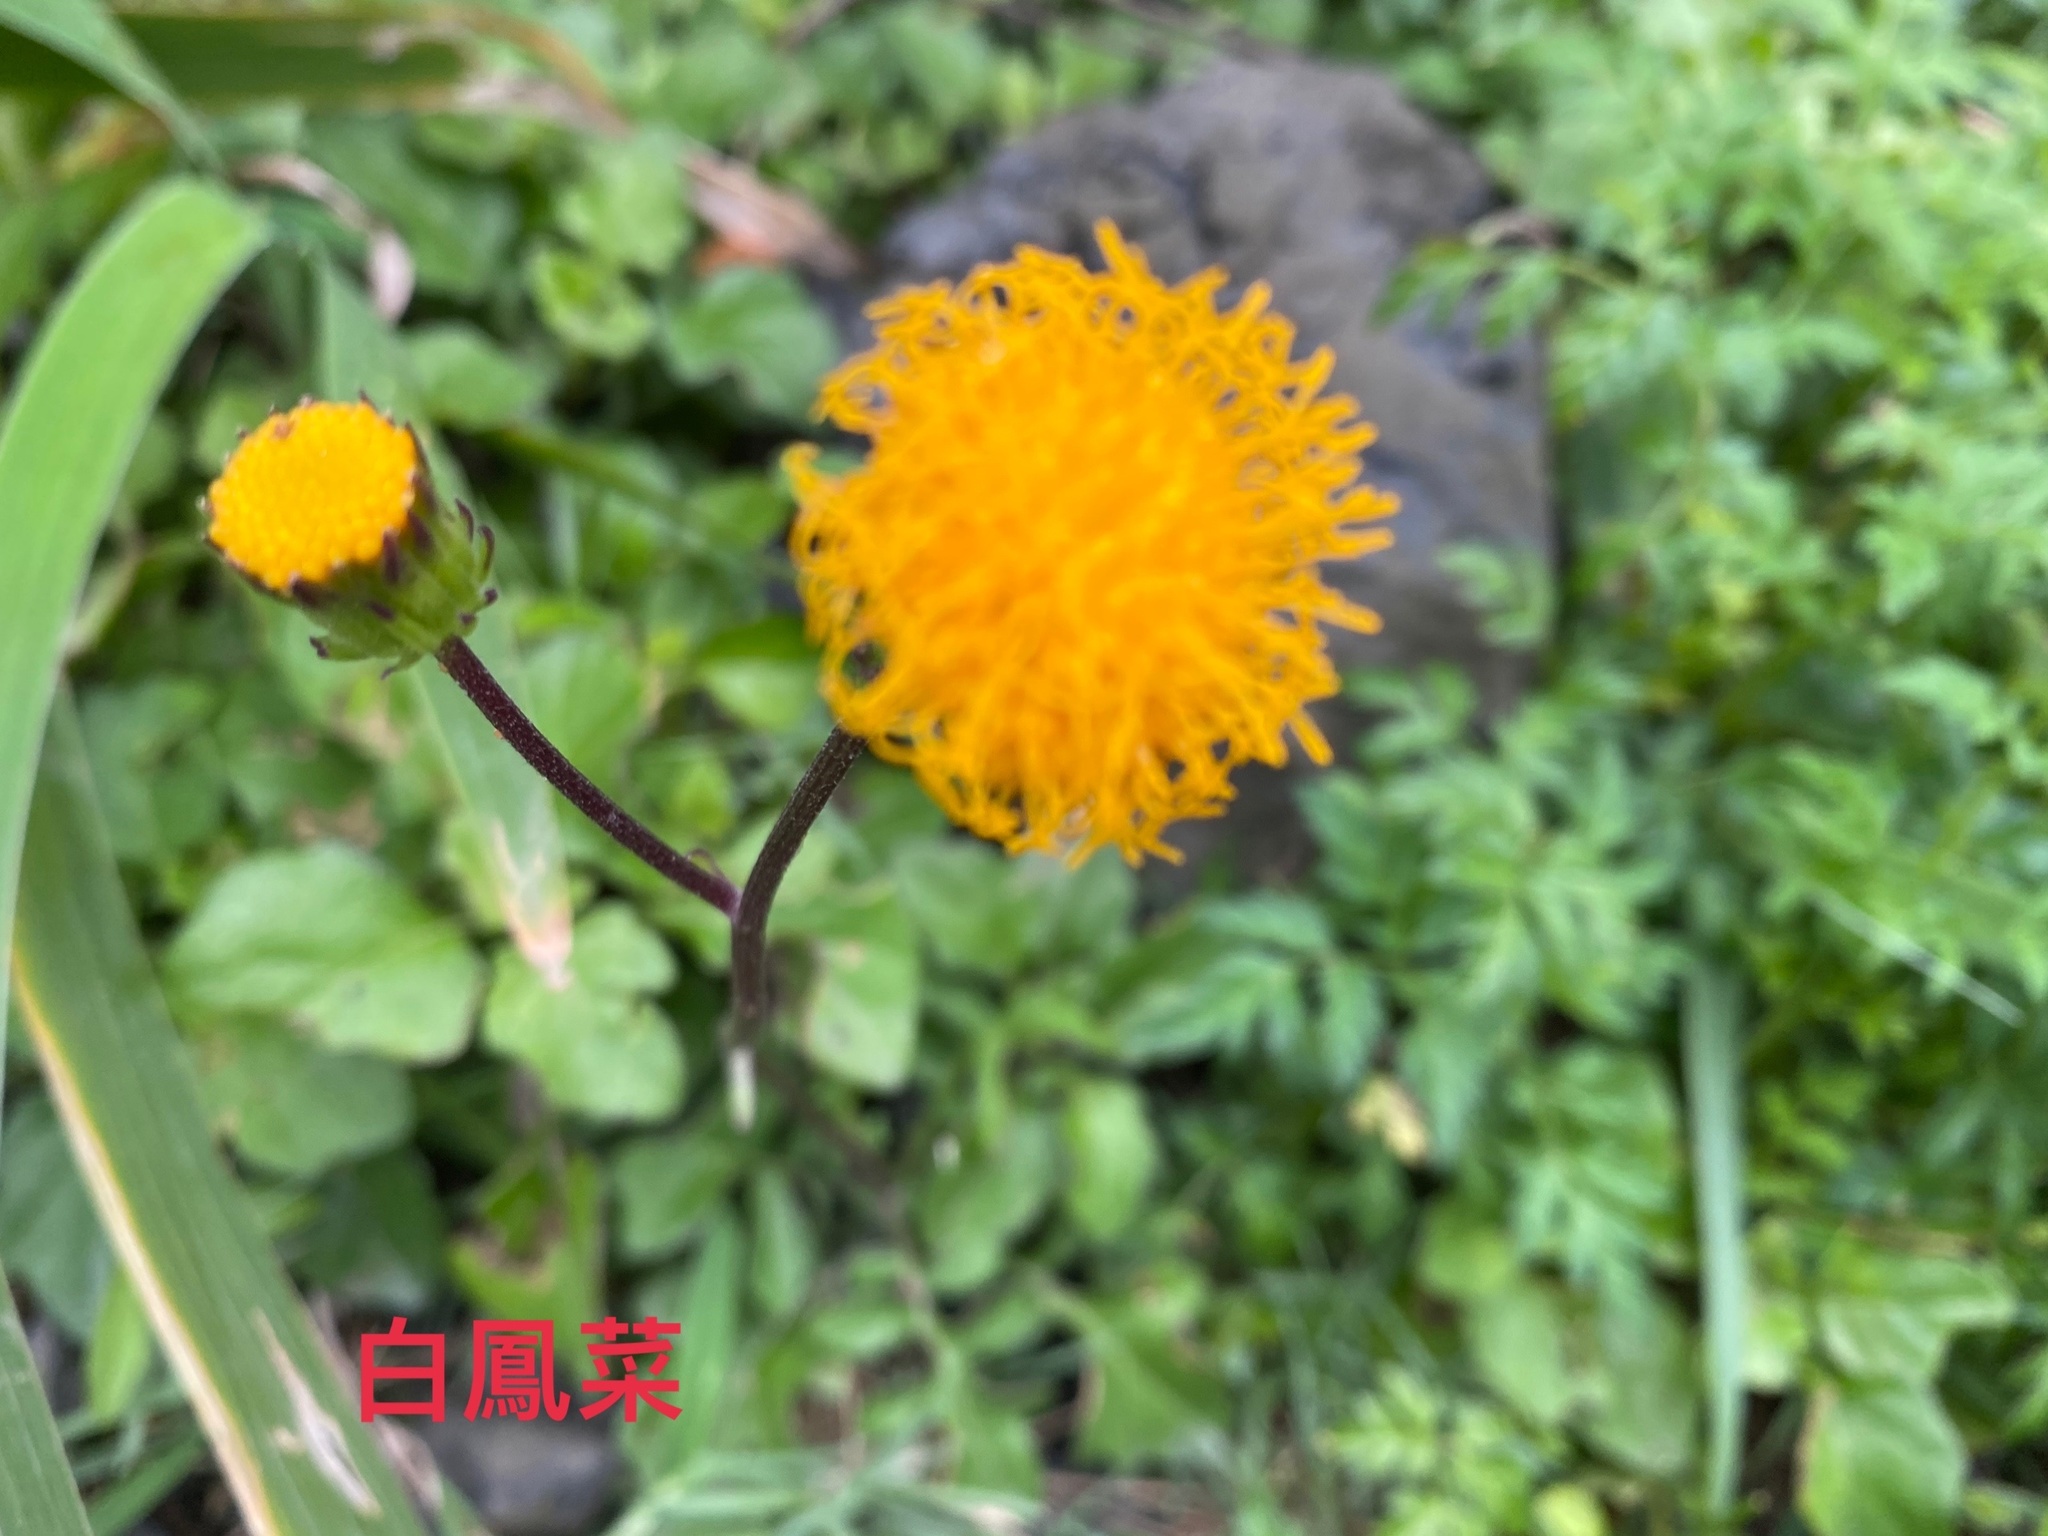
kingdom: Plantae
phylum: Tracheophyta
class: Magnoliopsida
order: Asterales
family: Asteraceae
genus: Gynura
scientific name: Gynura formosana
